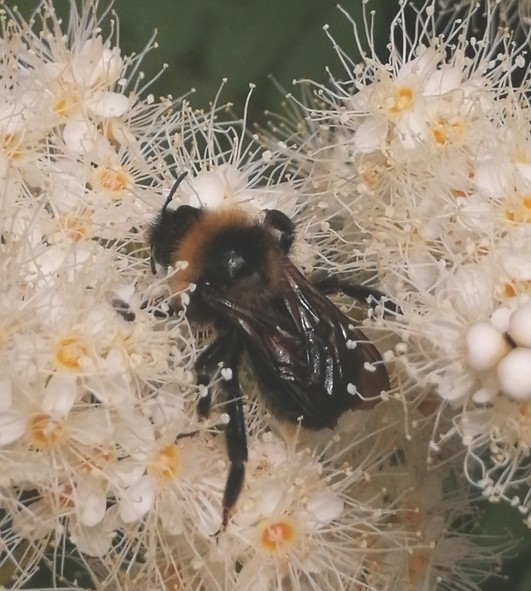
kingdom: Animalia
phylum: Arthropoda
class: Insecta
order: Hymenoptera
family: Apidae
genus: Bombus
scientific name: Bombus
